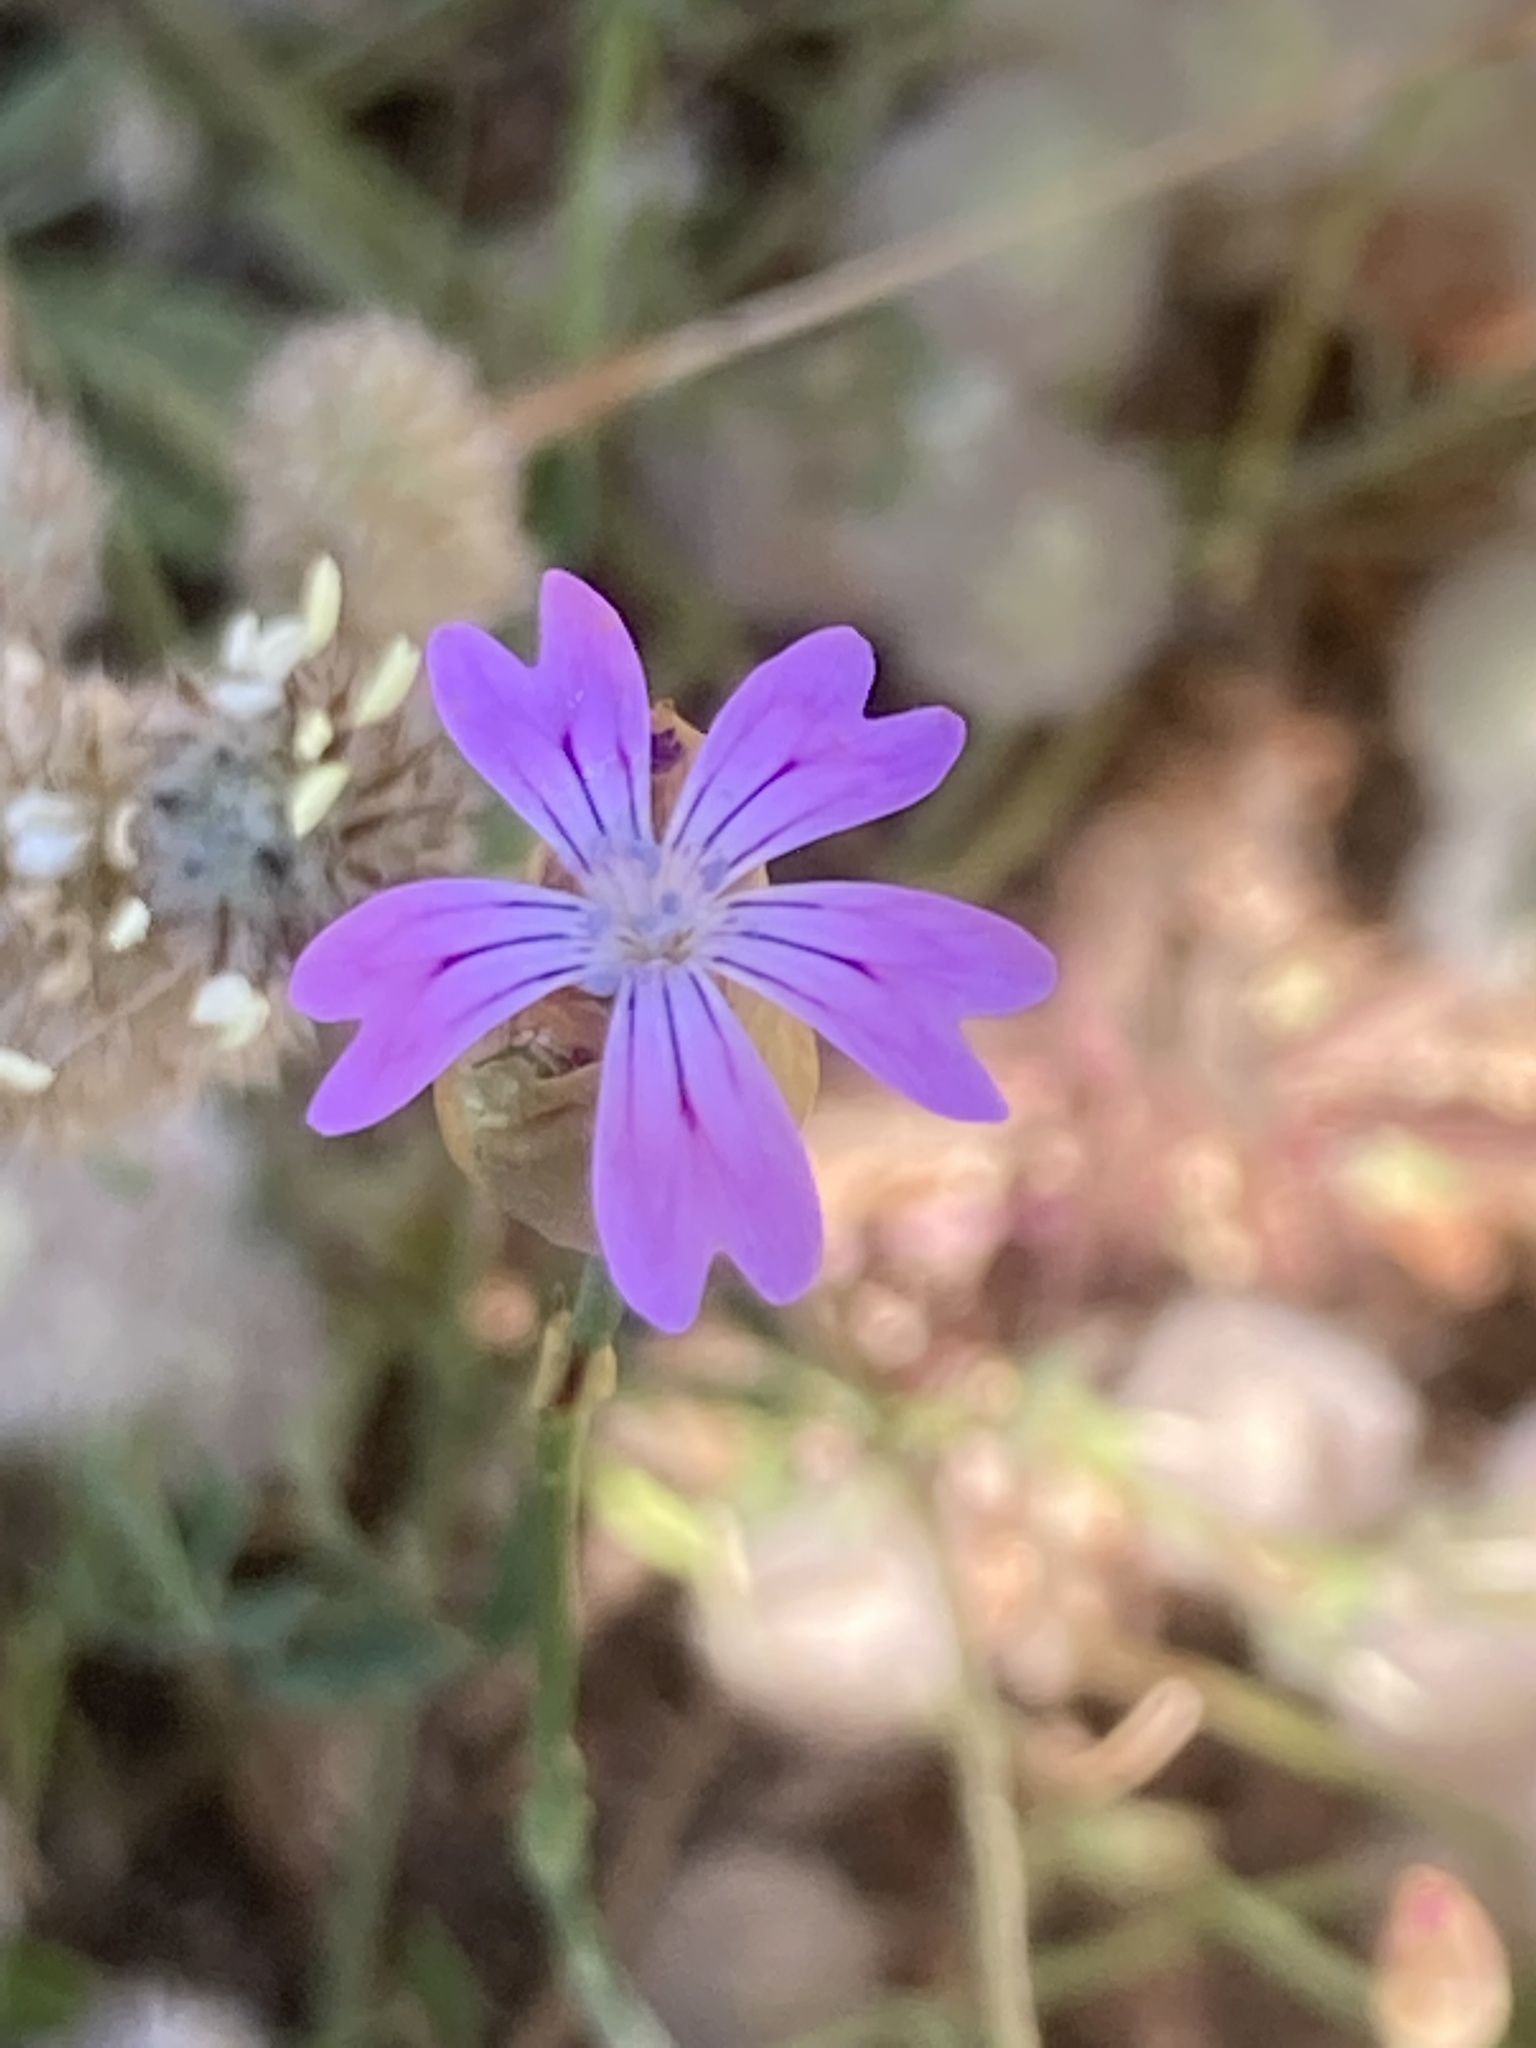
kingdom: Plantae
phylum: Tracheophyta
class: Magnoliopsida
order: Caryophyllales
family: Caryophyllaceae
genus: Petrorhagia
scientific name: Petrorhagia dubia
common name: Hairypink
